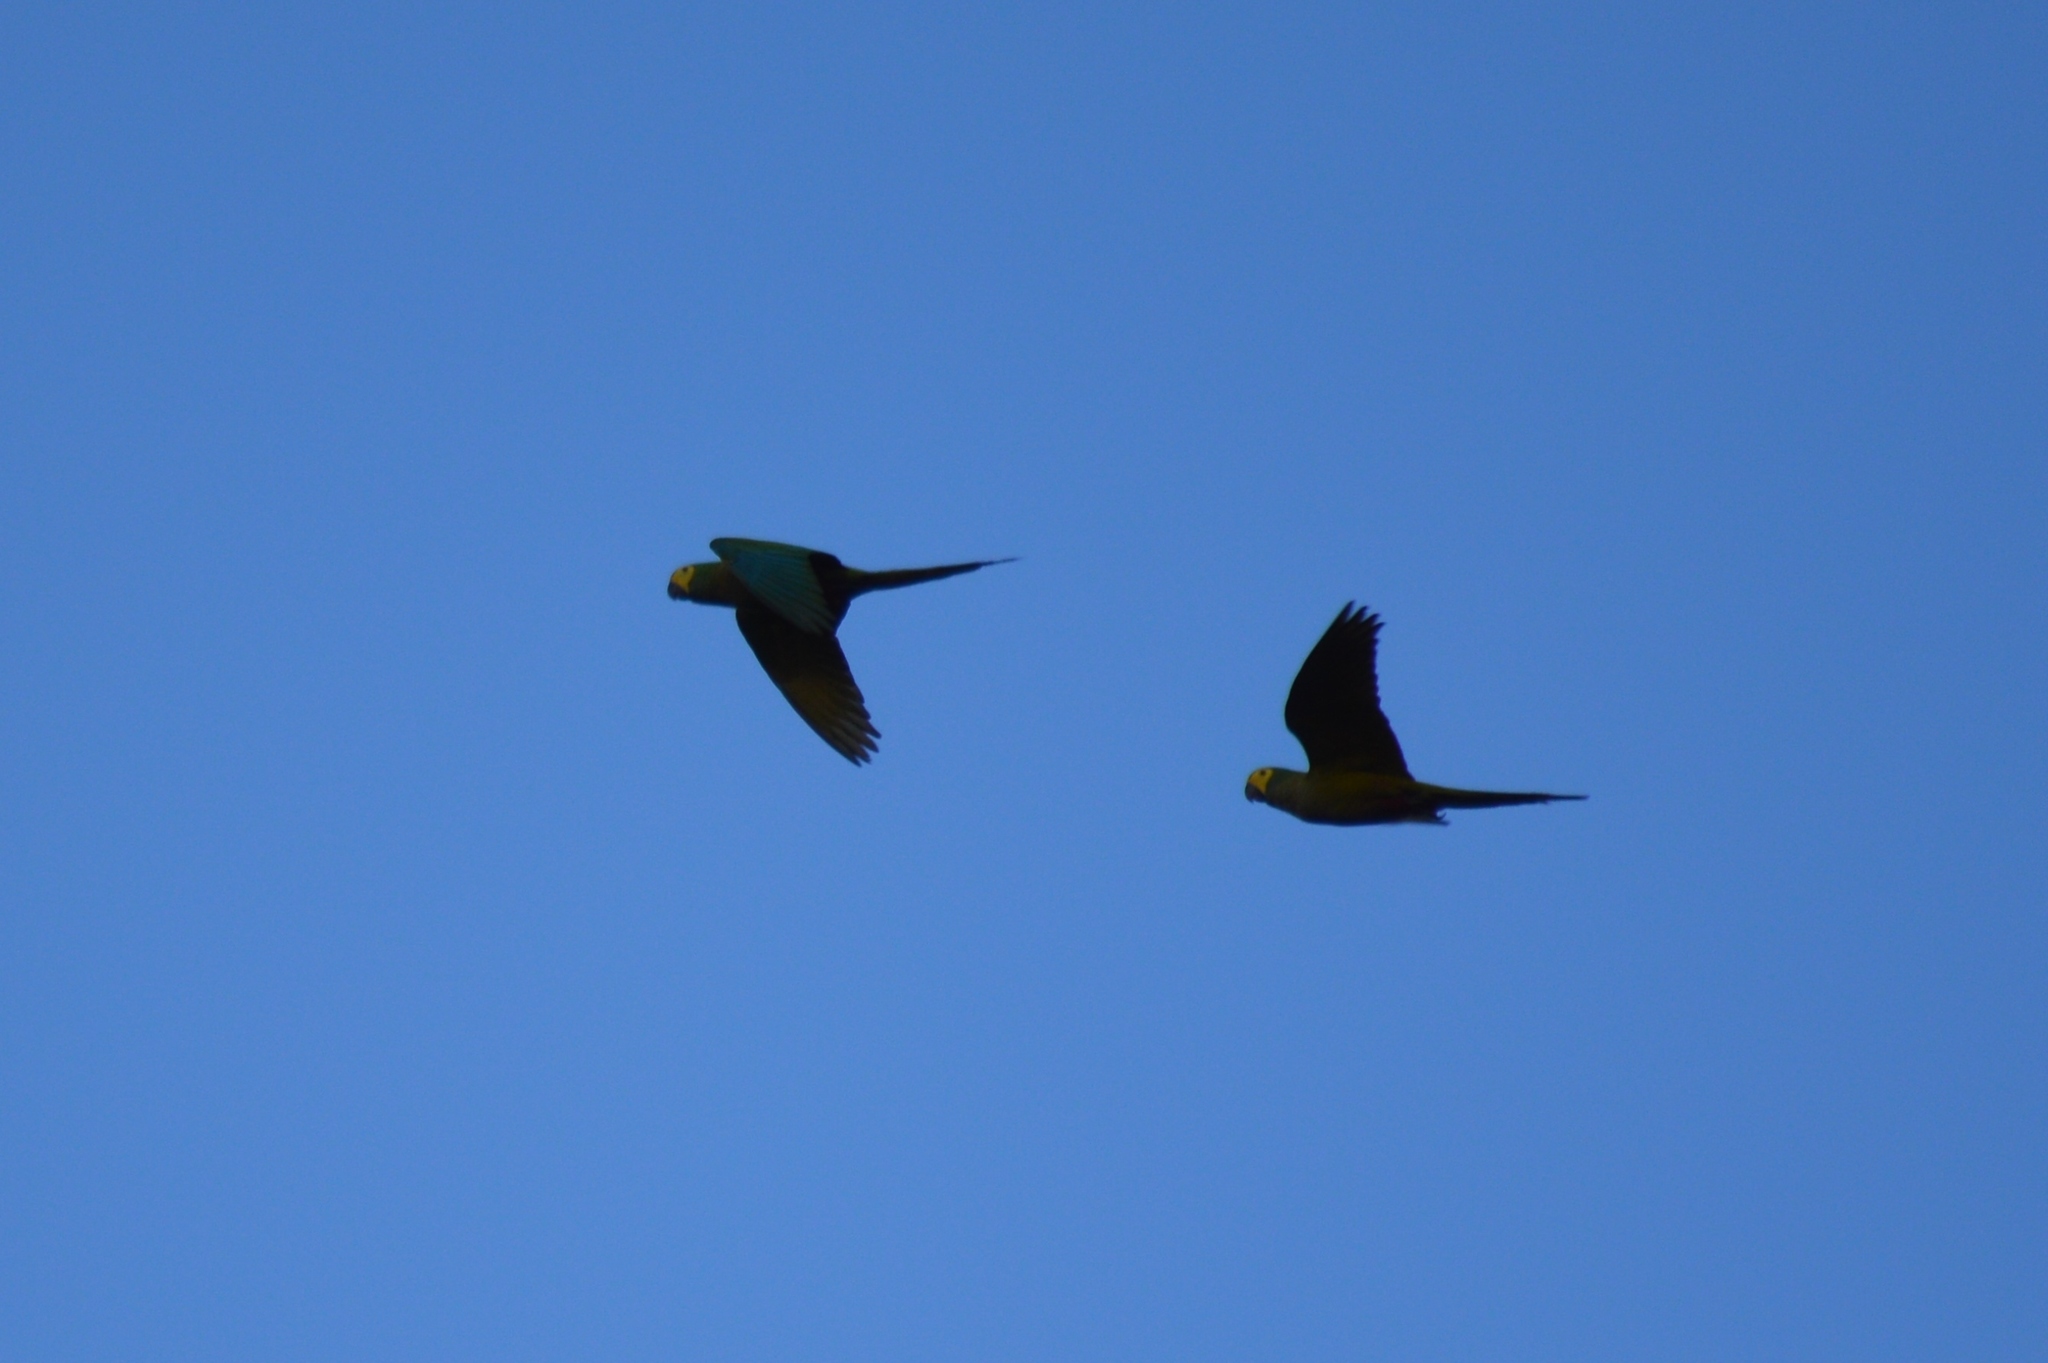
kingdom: Animalia
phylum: Chordata
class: Aves
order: Psittaciformes
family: Psittacidae
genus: Orthopsittaca
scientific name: Orthopsittaca manilata
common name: Red-bellied macaw
